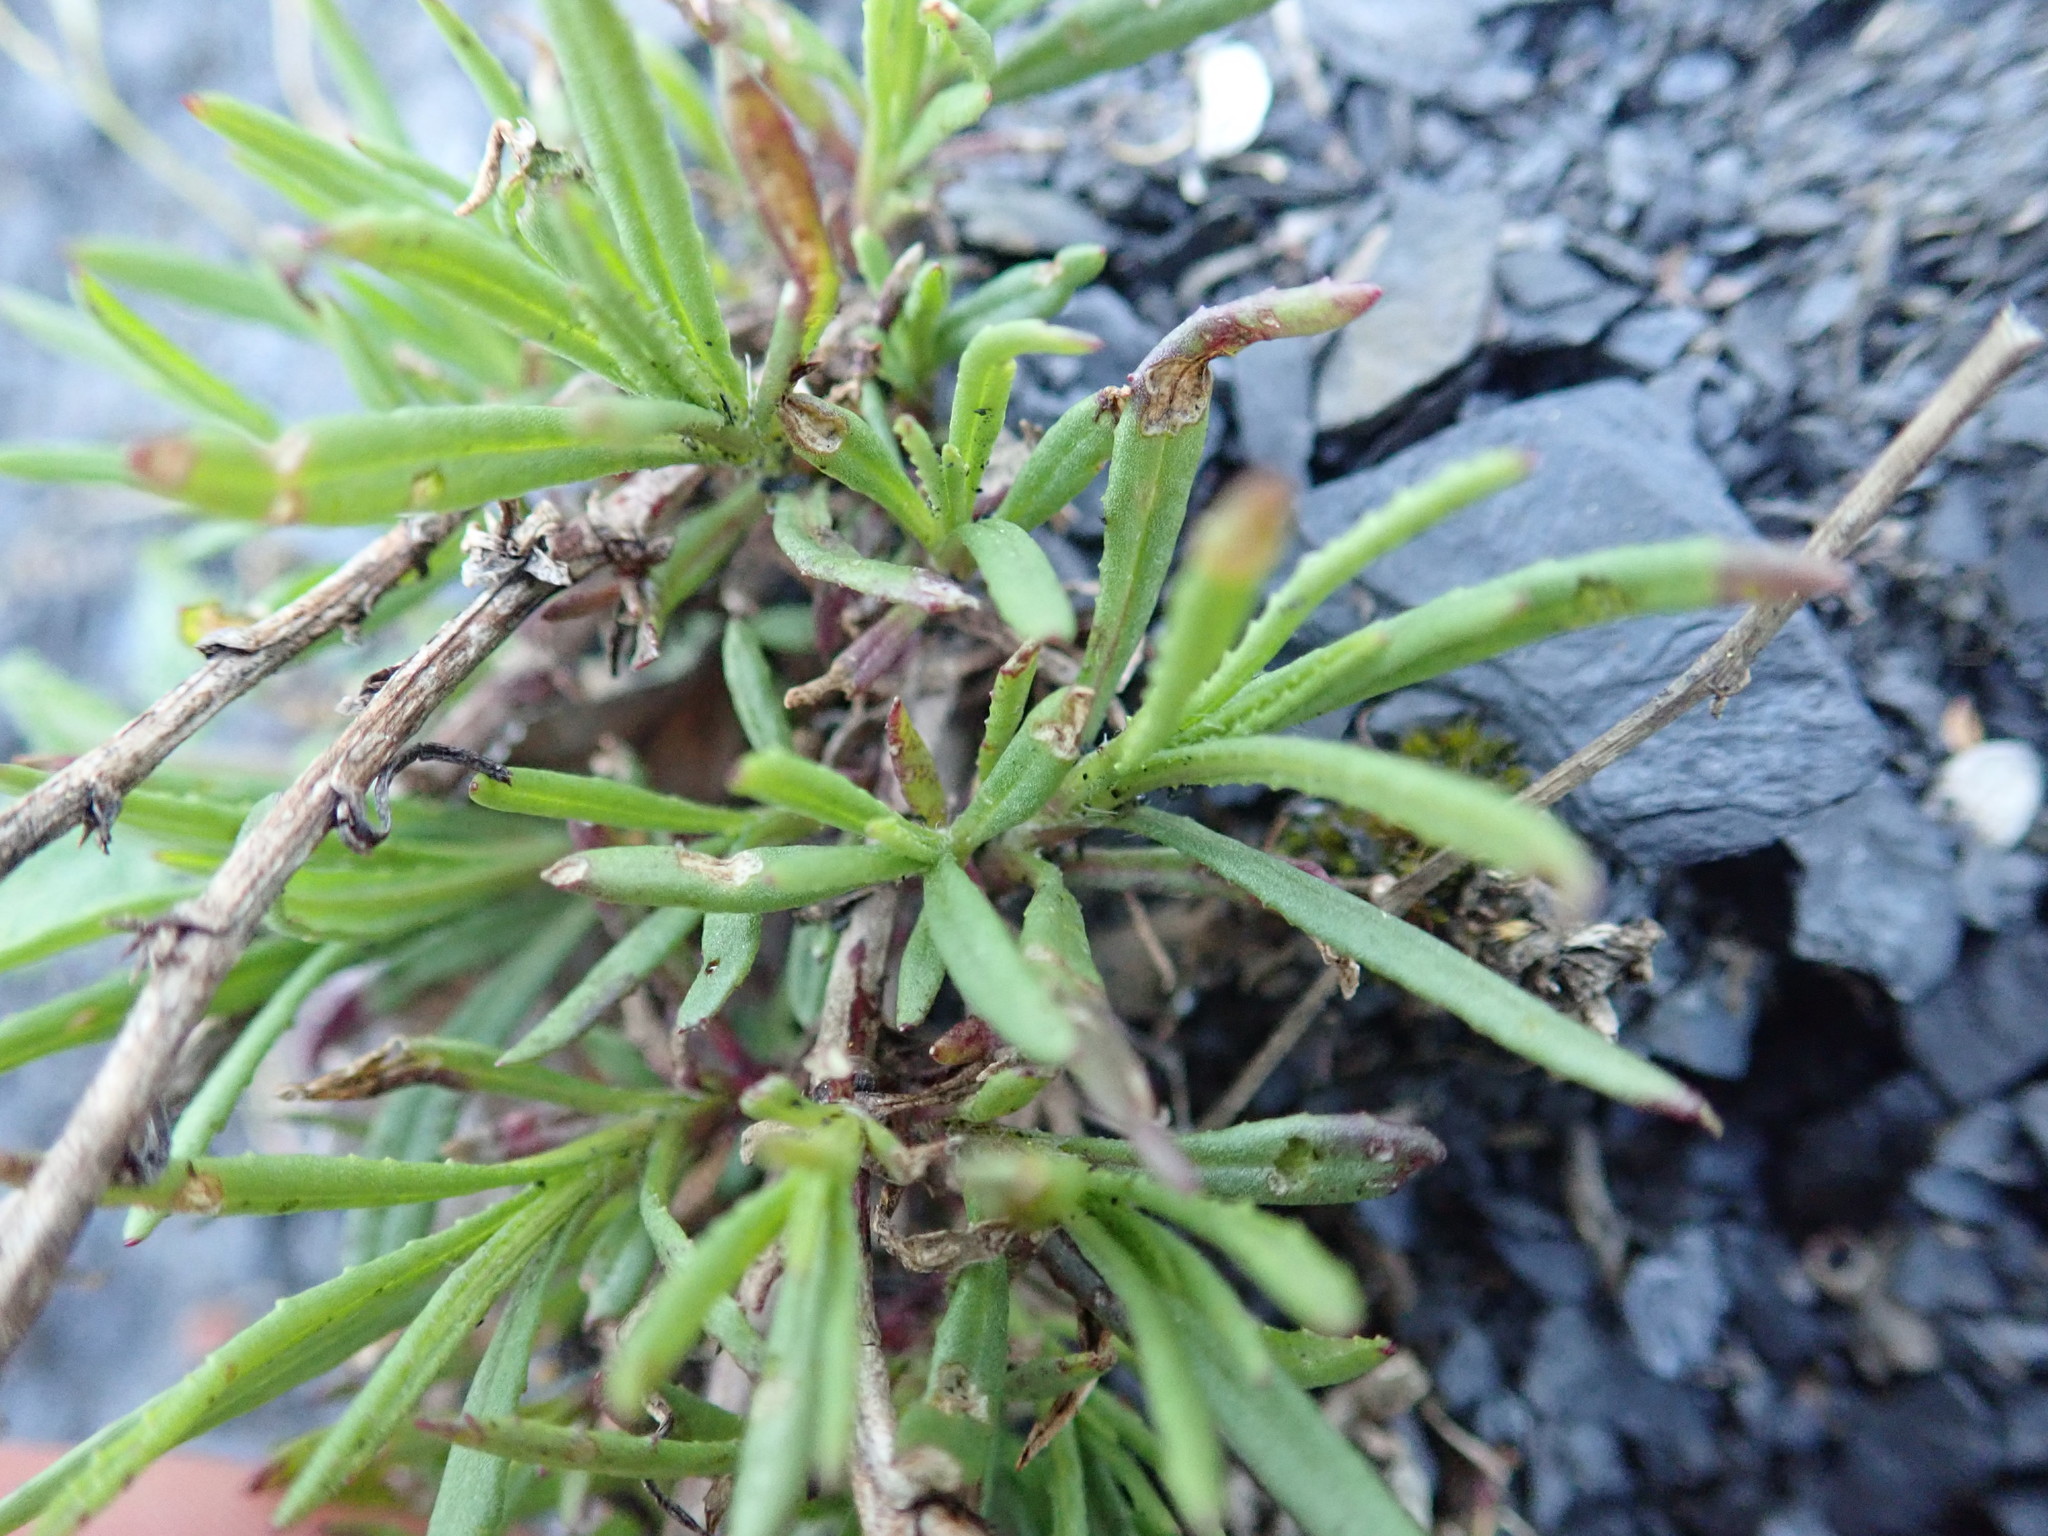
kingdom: Plantae
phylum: Tracheophyta
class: Magnoliopsida
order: Asterales
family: Asteraceae
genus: Senecio
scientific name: Senecio inaequidens
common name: Narrow-leaved ragwort
